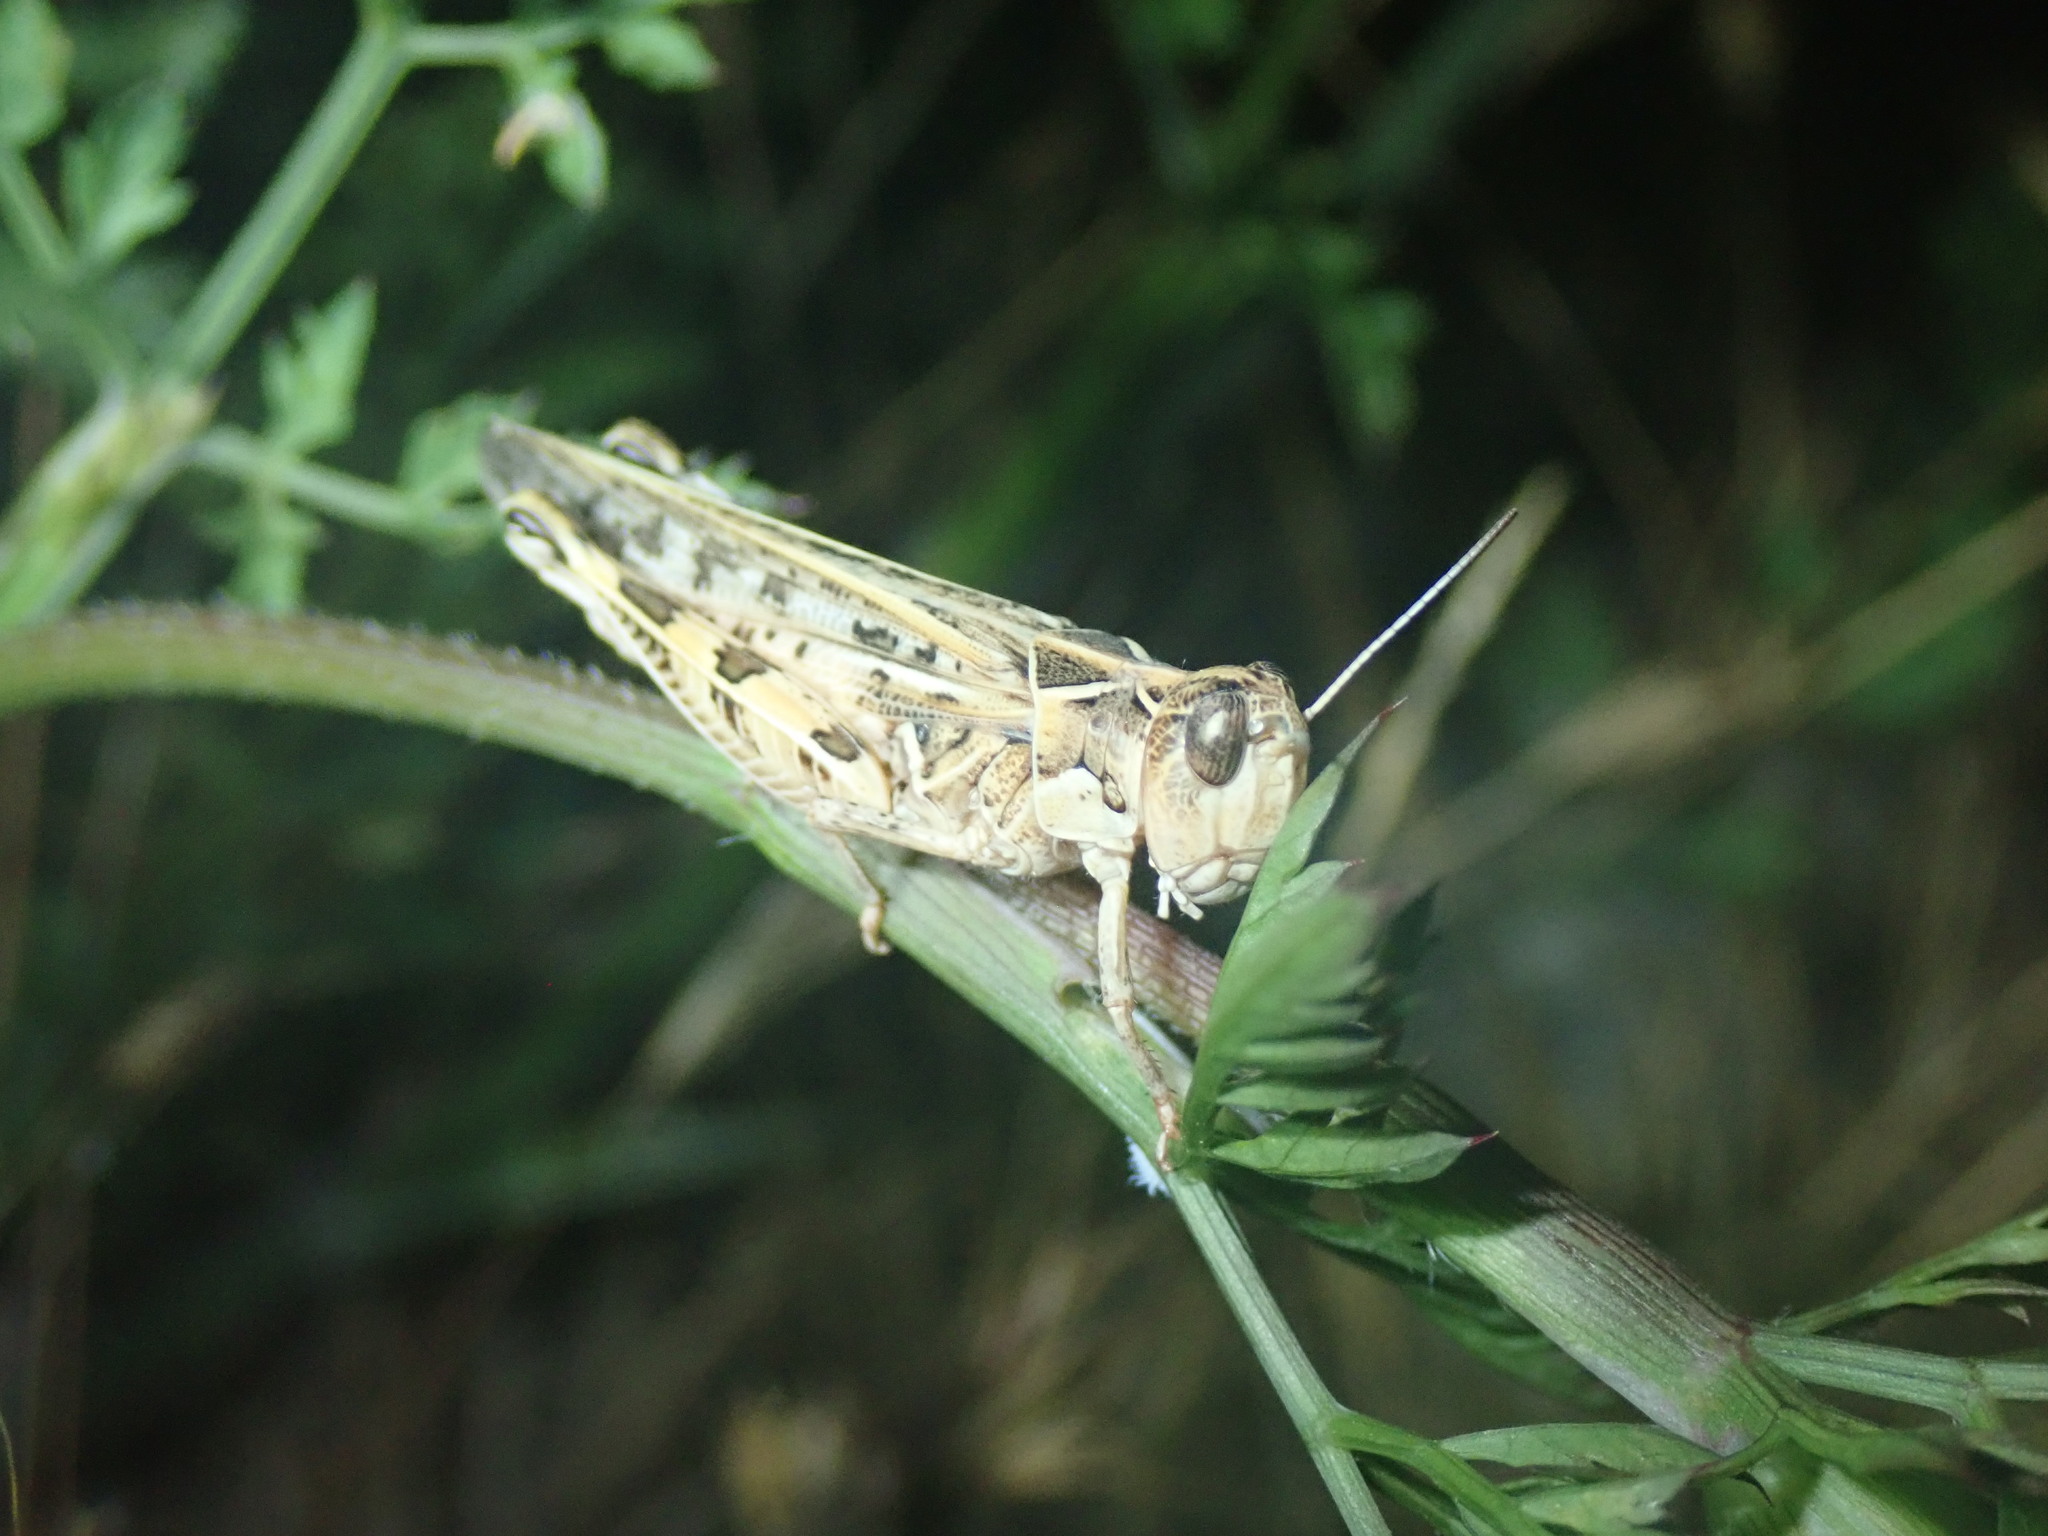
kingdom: Animalia
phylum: Arthropoda
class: Insecta
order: Orthoptera
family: Acrididae
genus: Dociostaurus
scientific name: Dociostaurus maroccanus
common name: Moroccan locust
